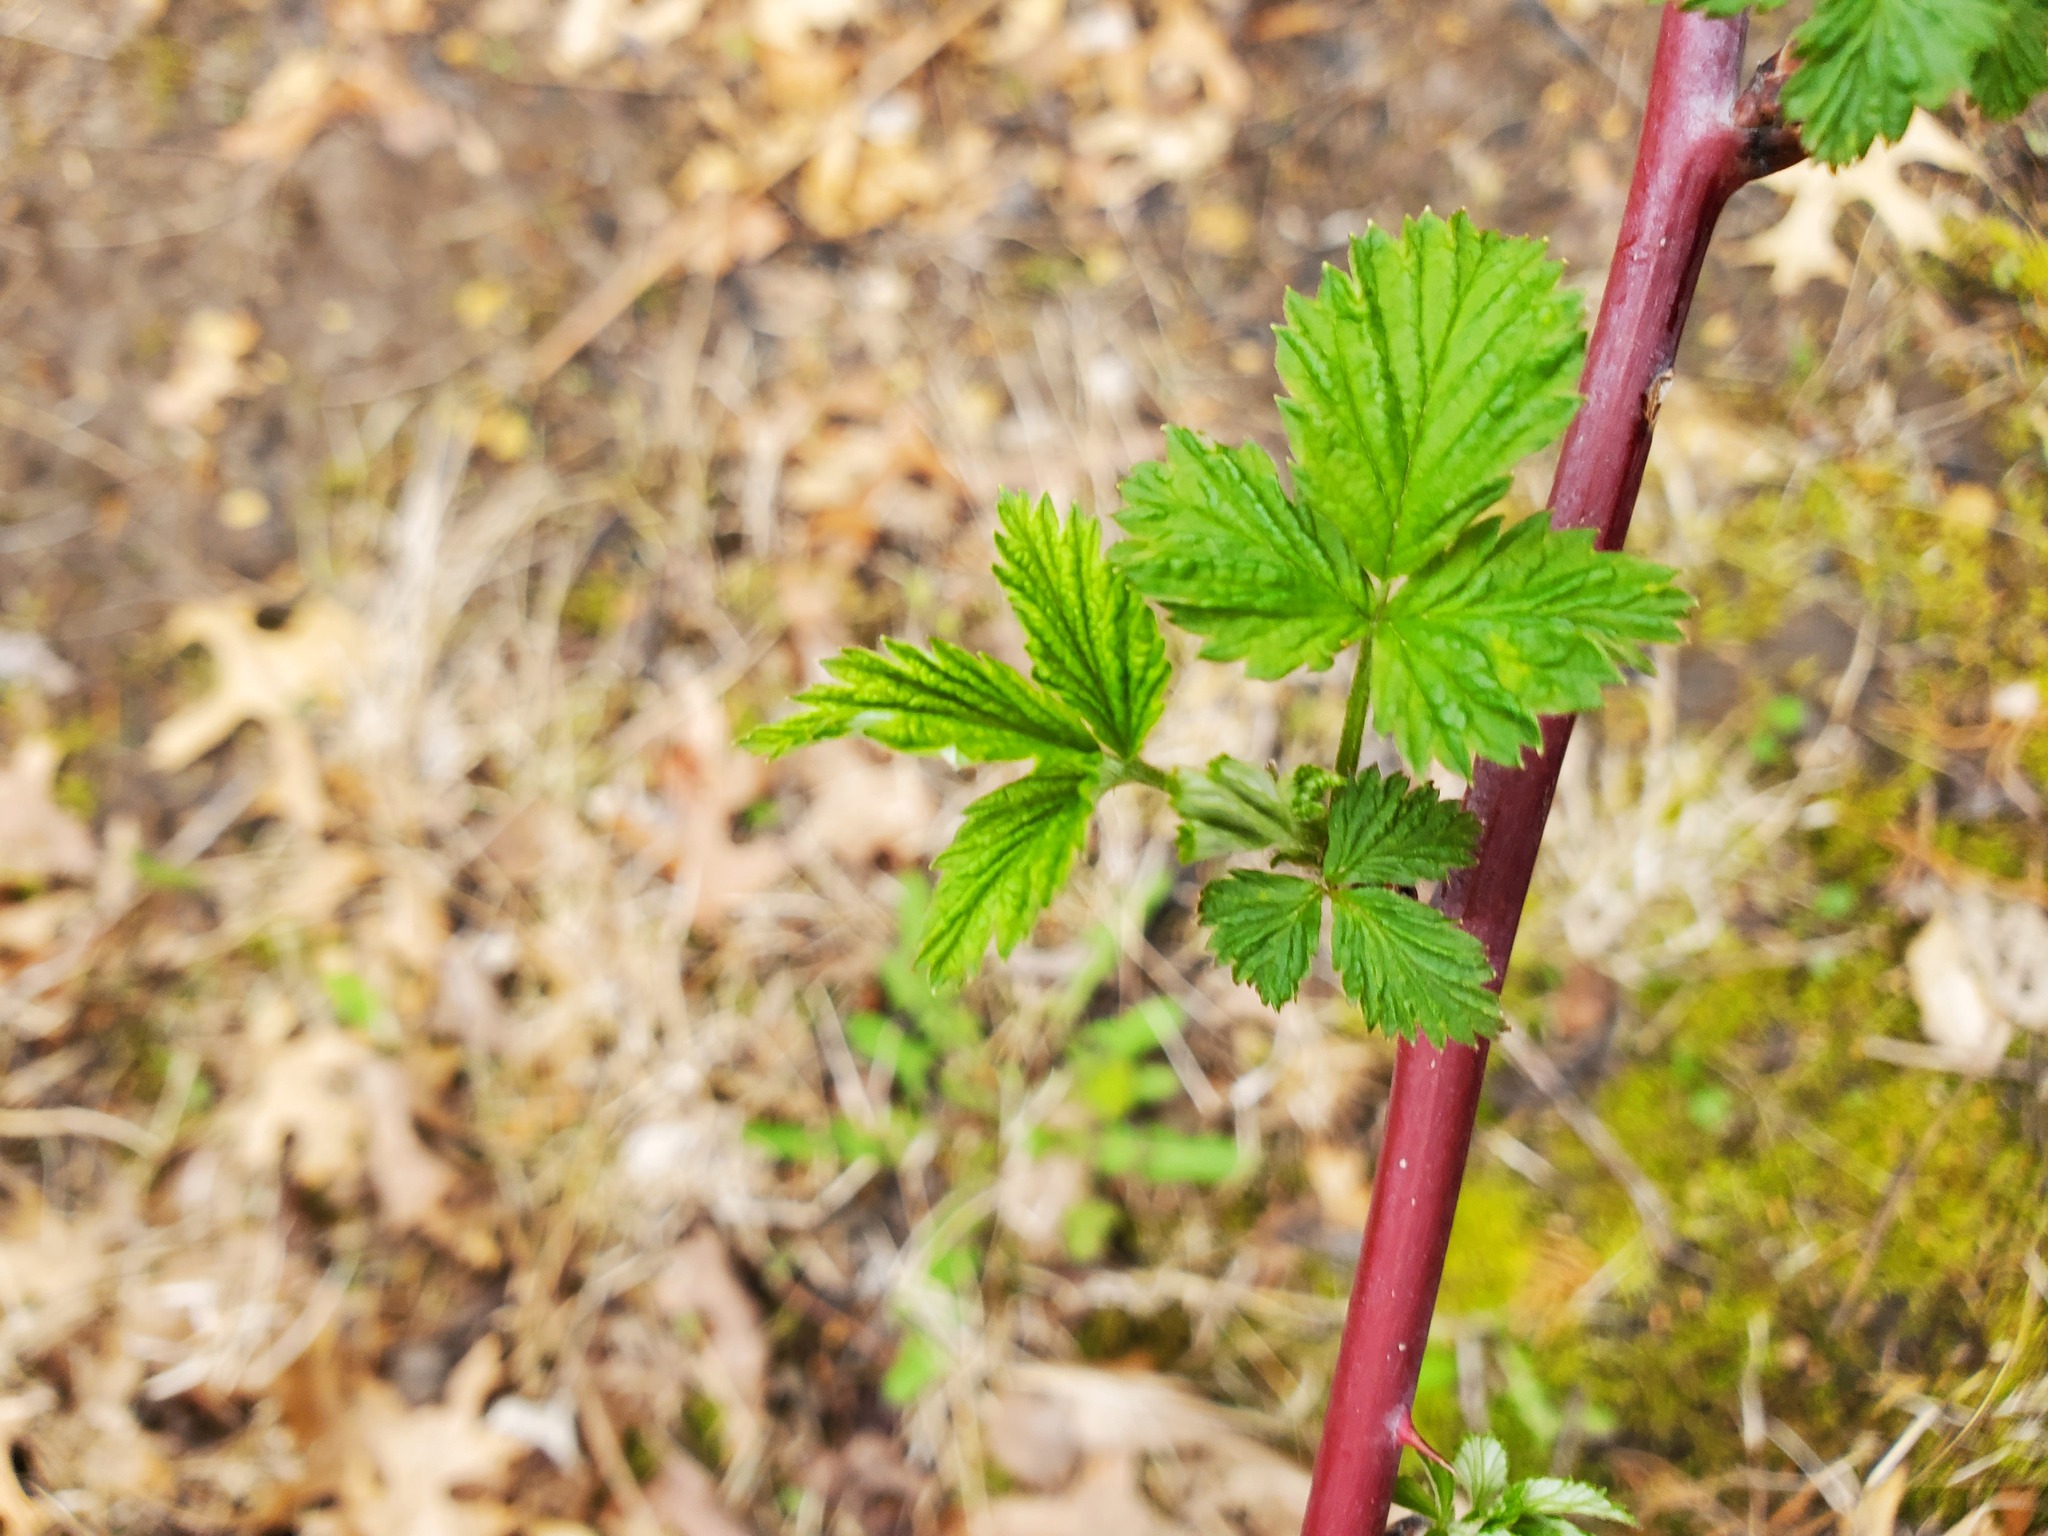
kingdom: Plantae
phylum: Tracheophyta
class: Magnoliopsida
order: Rosales
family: Rosaceae
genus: Rubus
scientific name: Rubus occidentalis
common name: Black raspberry
